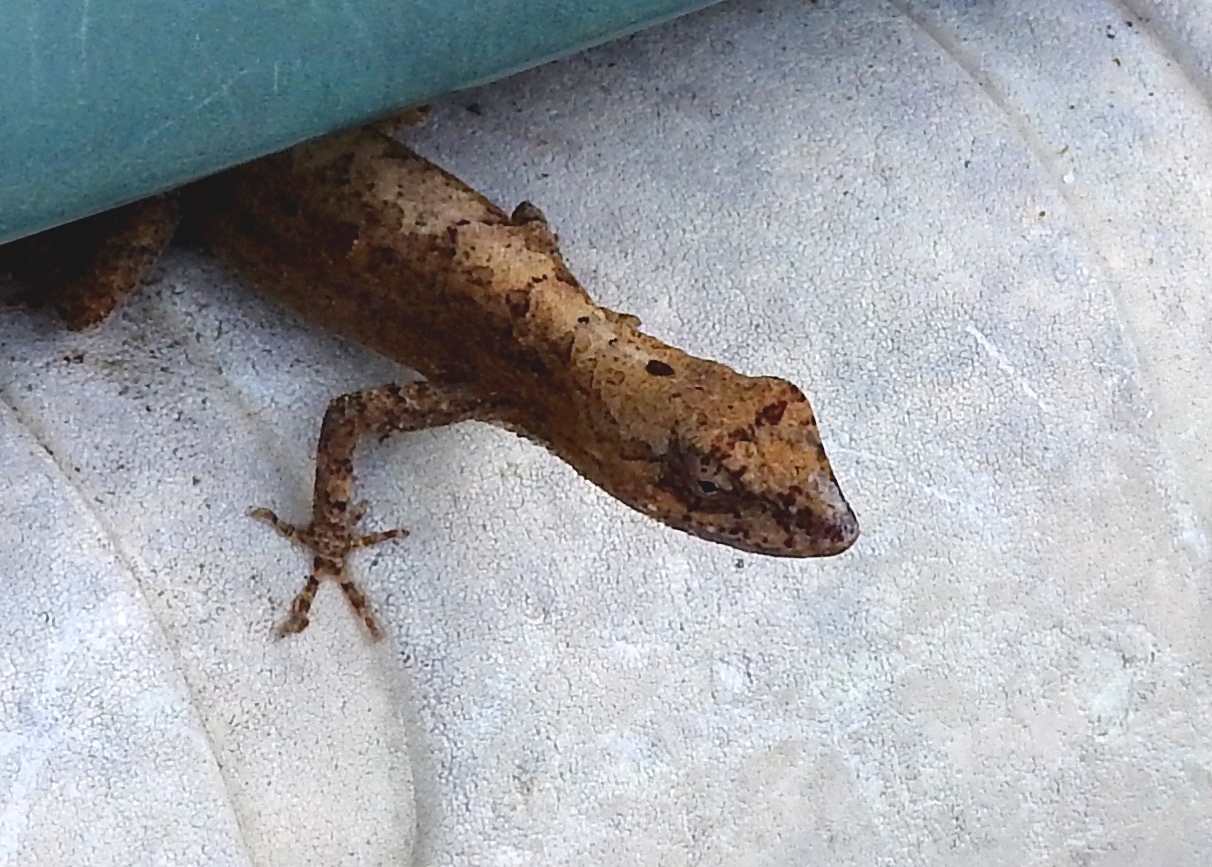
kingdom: Animalia
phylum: Chordata
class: Squamata
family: Dactyloidae
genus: Anolis
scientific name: Anolis nebulosus
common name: Clouded anole
